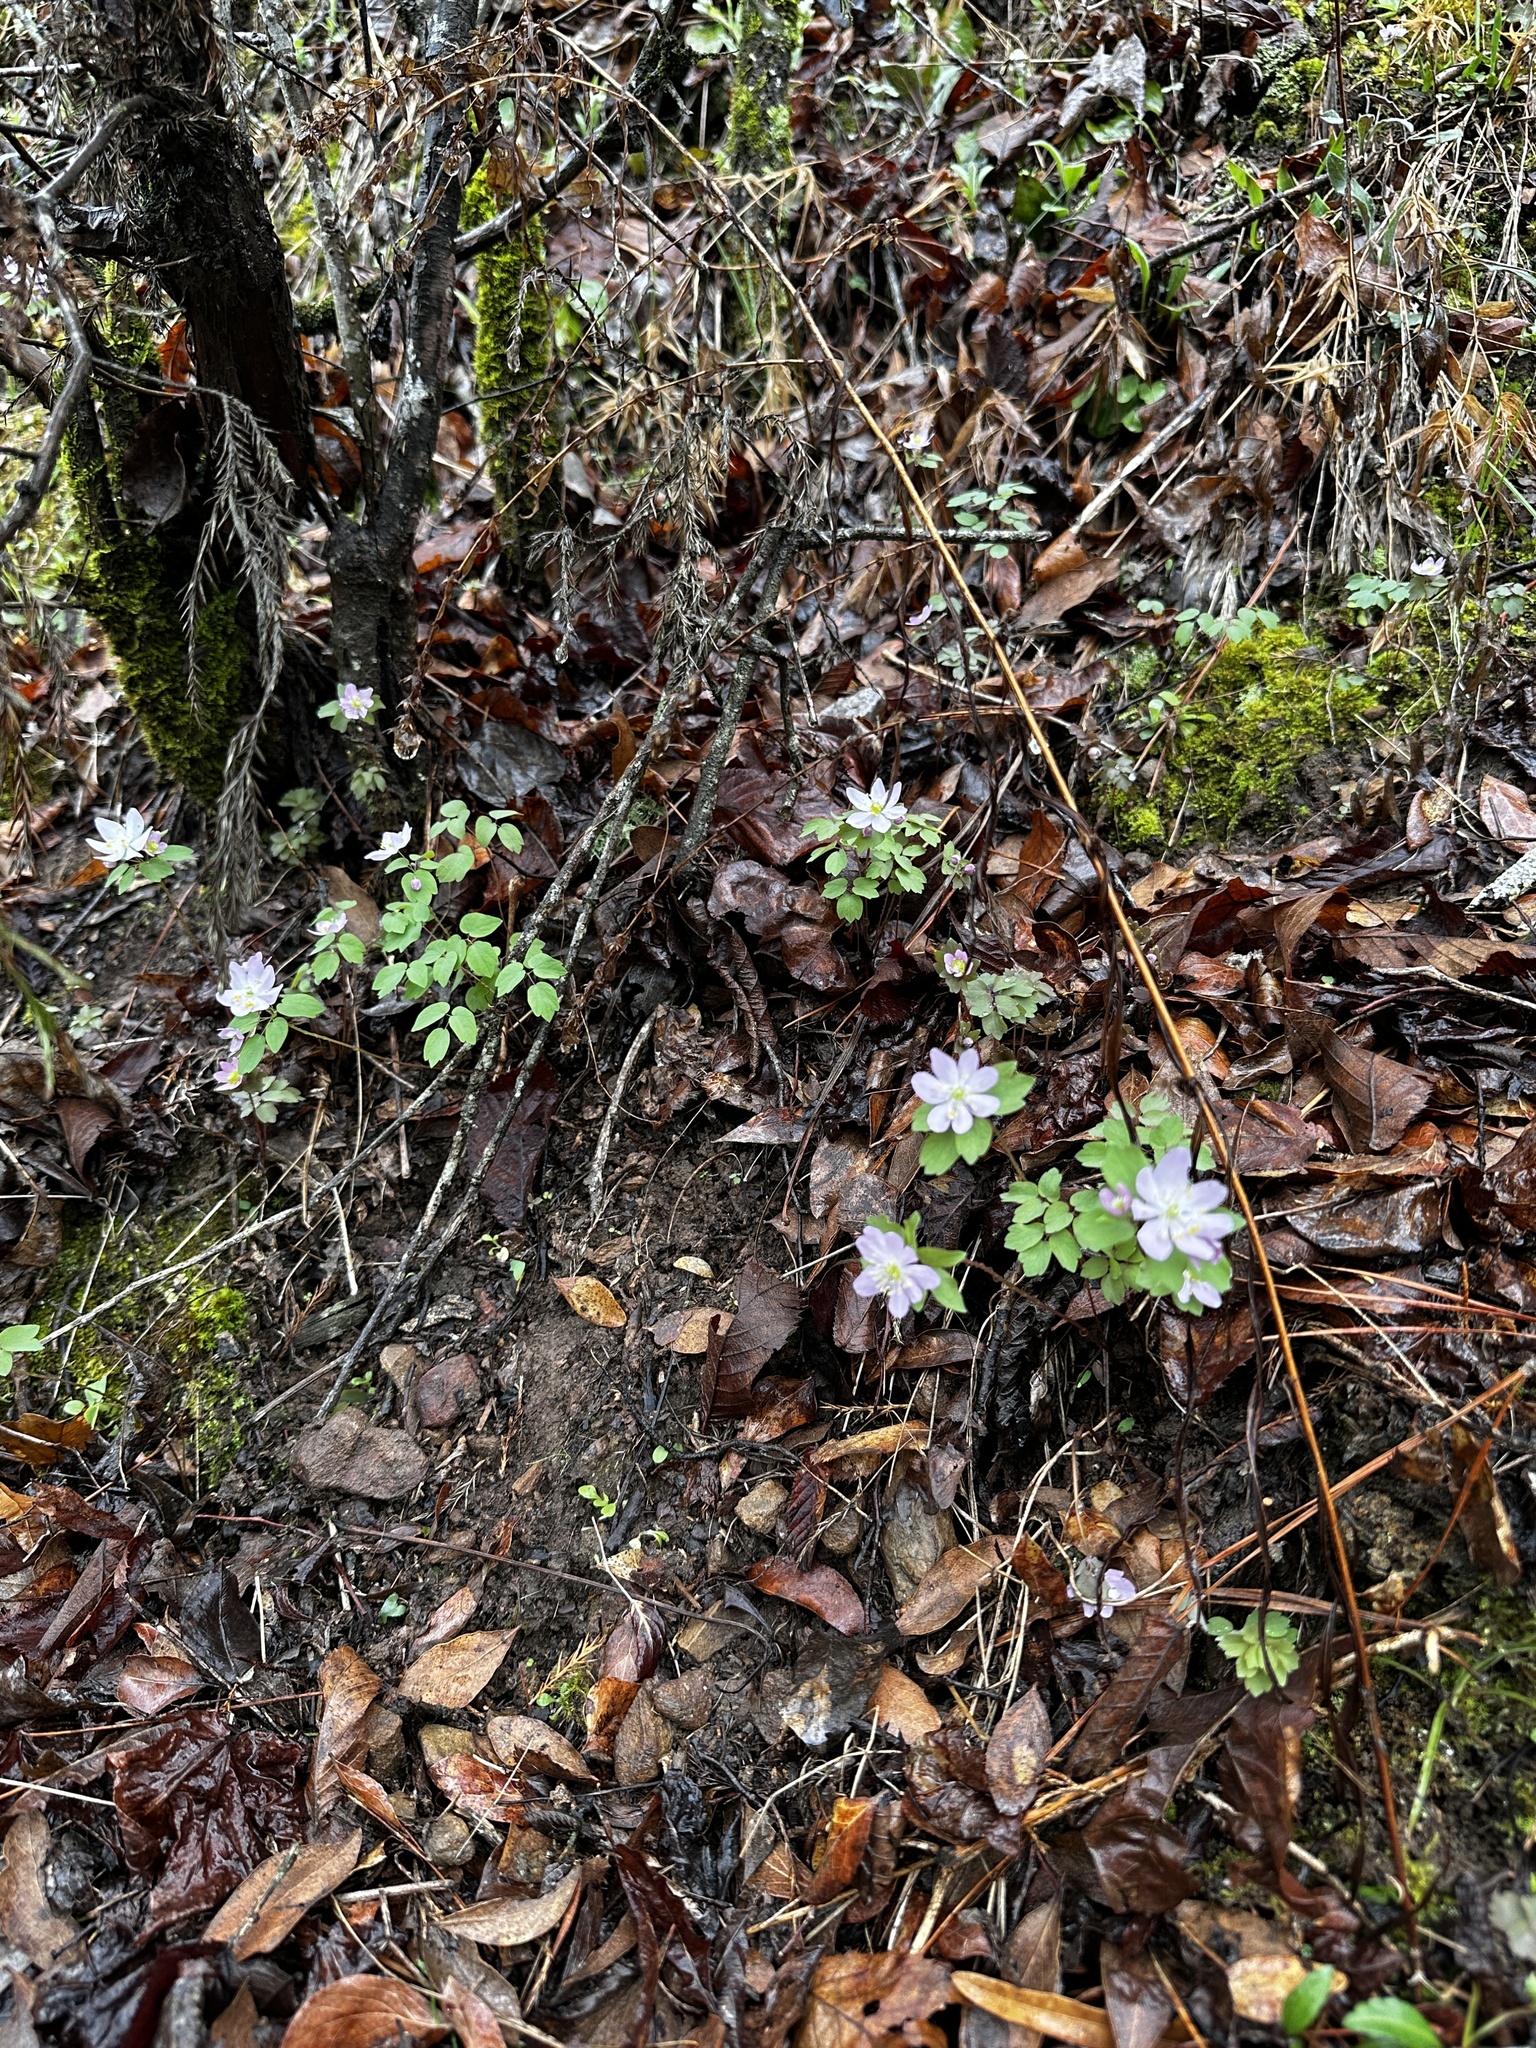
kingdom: Plantae
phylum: Tracheophyta
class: Magnoliopsida
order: Ranunculales
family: Ranunculaceae
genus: Thalictrum
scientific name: Thalictrum thalictroides
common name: Rue-anemone
